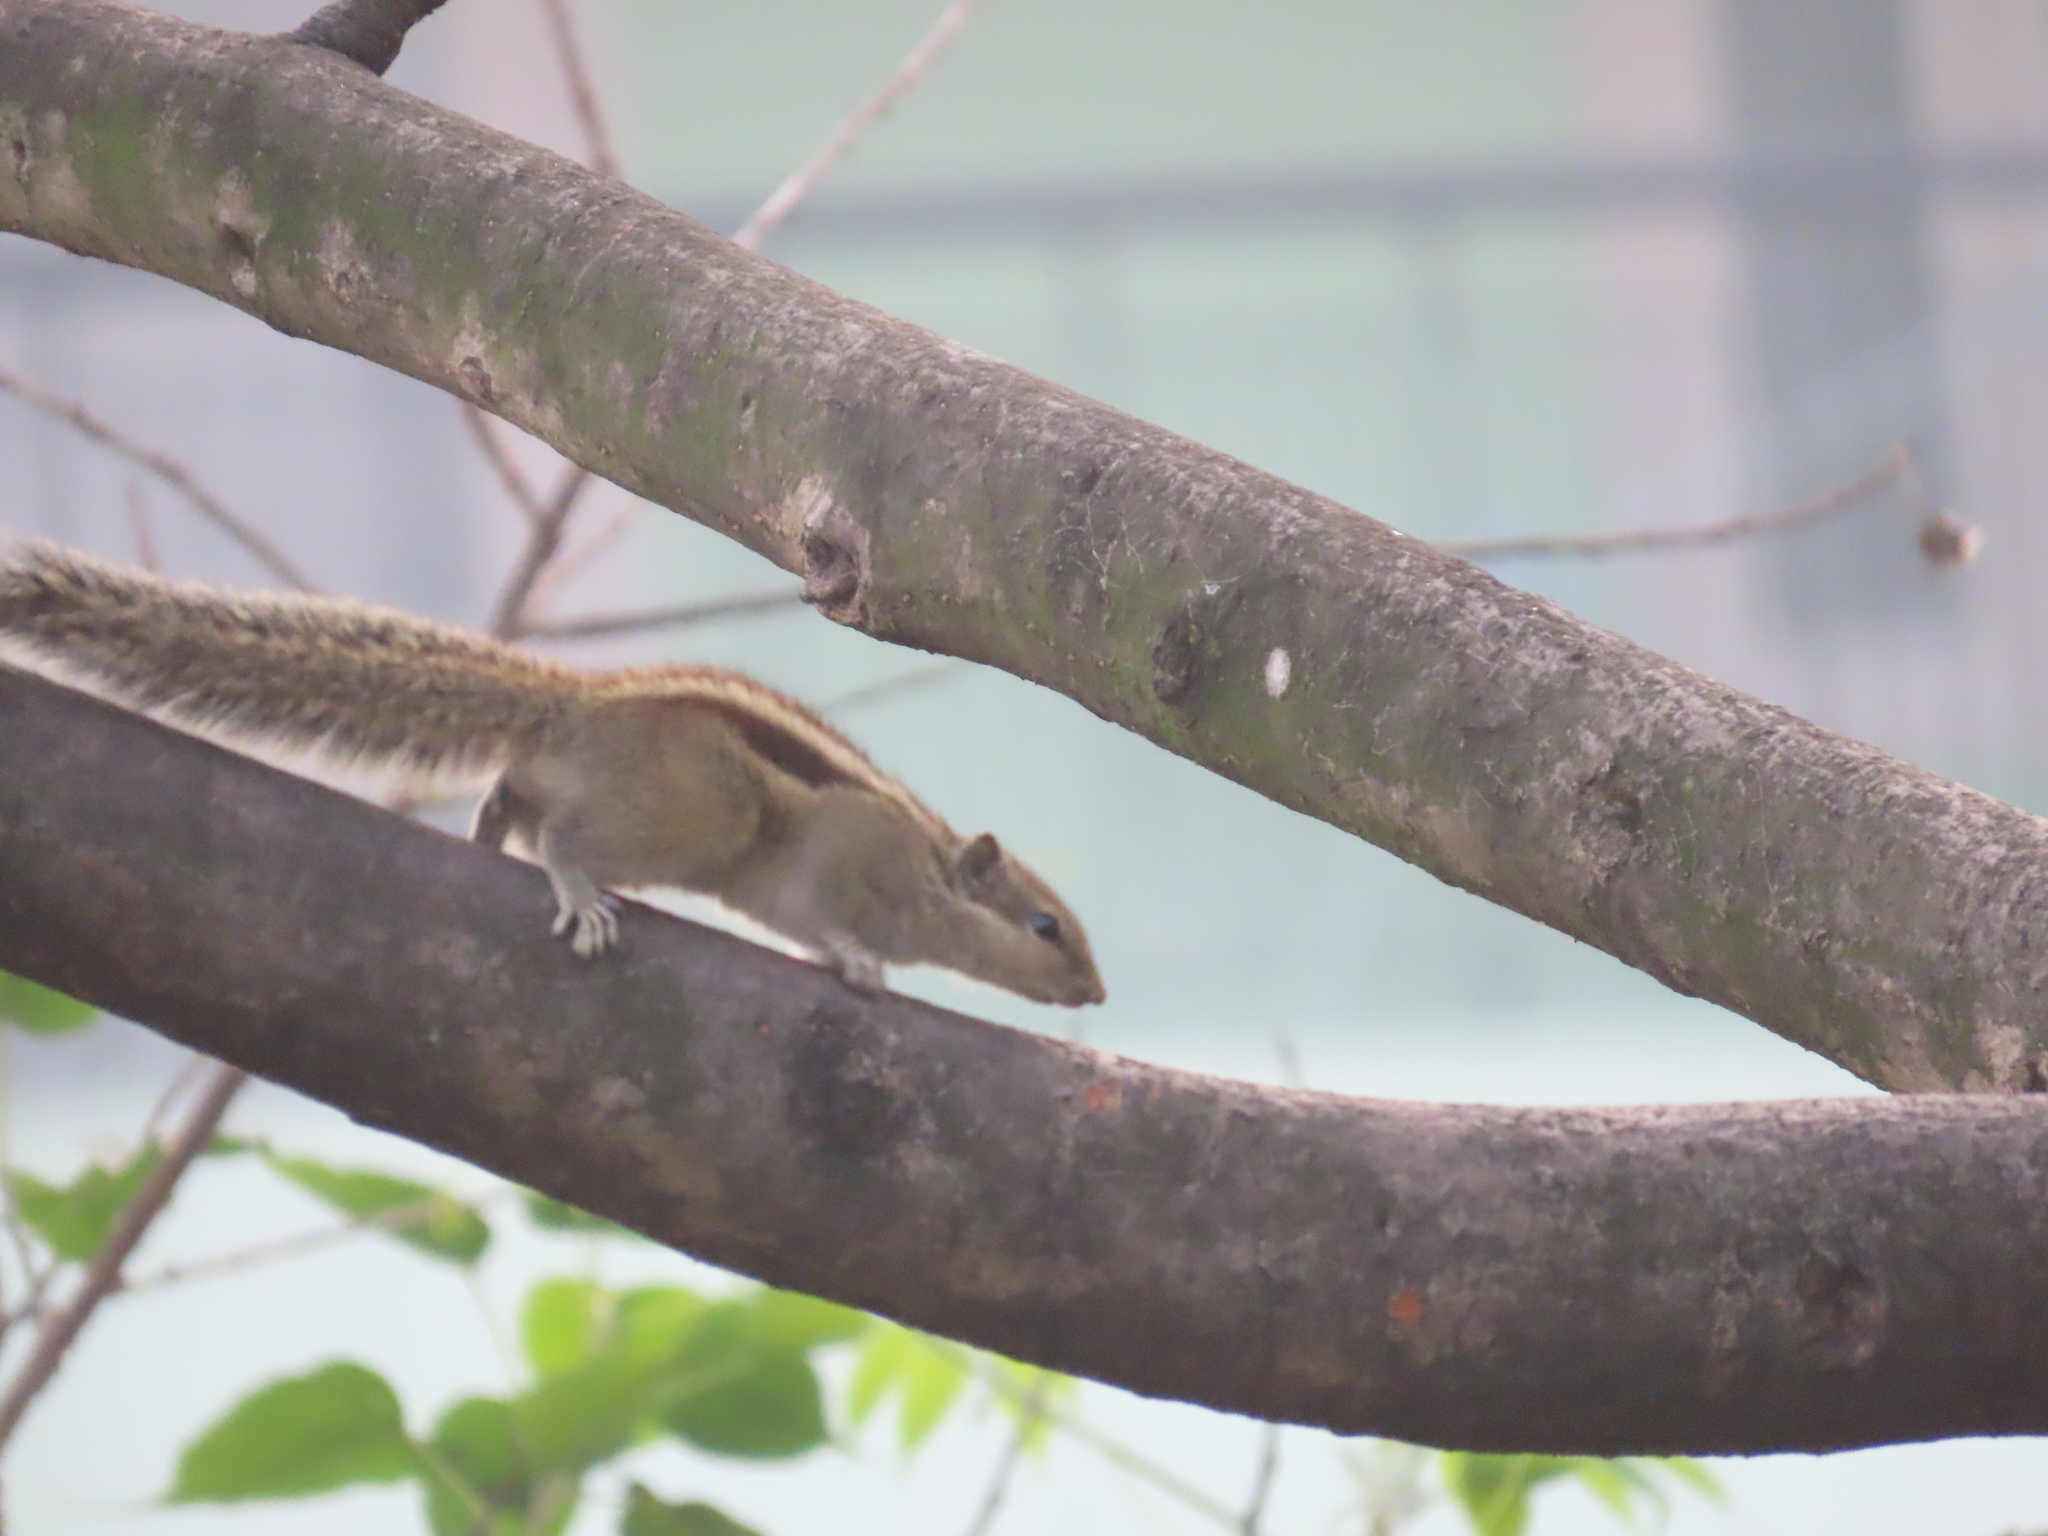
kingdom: Animalia
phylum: Chordata
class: Mammalia
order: Rodentia
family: Sciuridae
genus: Funambulus
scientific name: Funambulus pennantii
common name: Northern palm squirrel
